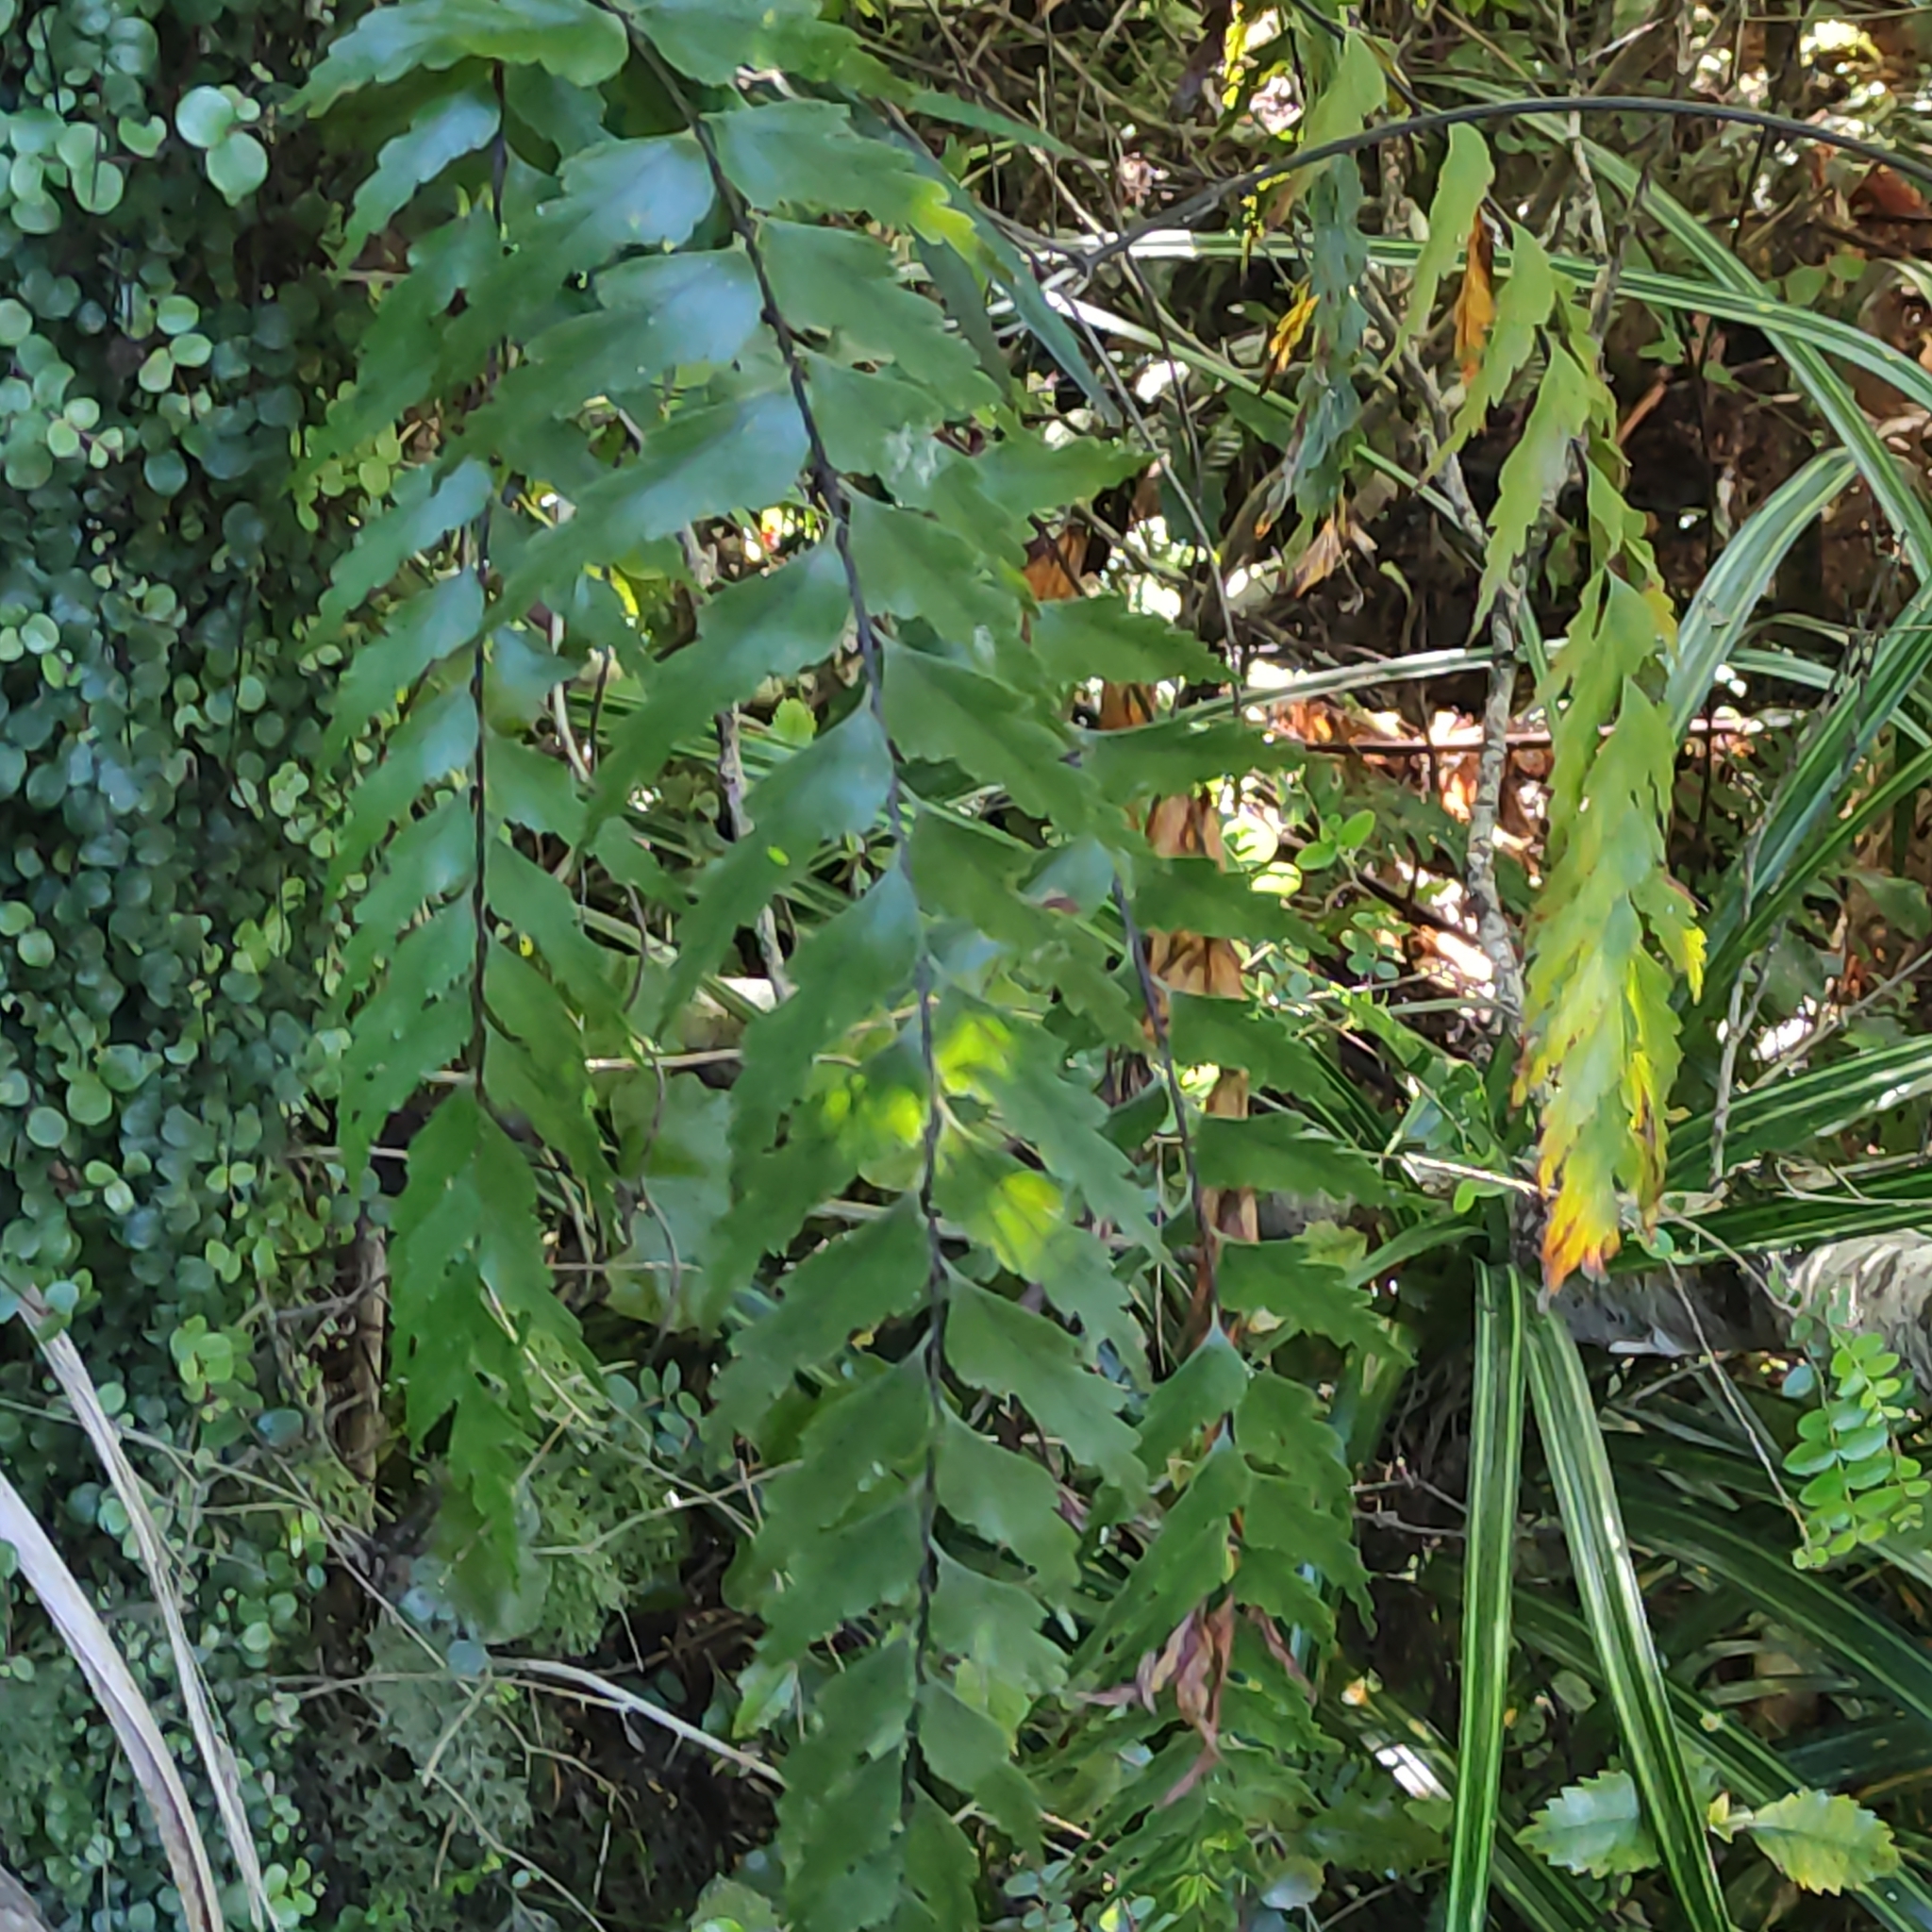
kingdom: Plantae
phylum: Tracheophyta
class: Polypodiopsida
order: Polypodiales
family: Aspleniaceae
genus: Asplenium
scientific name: Asplenium polyodon
